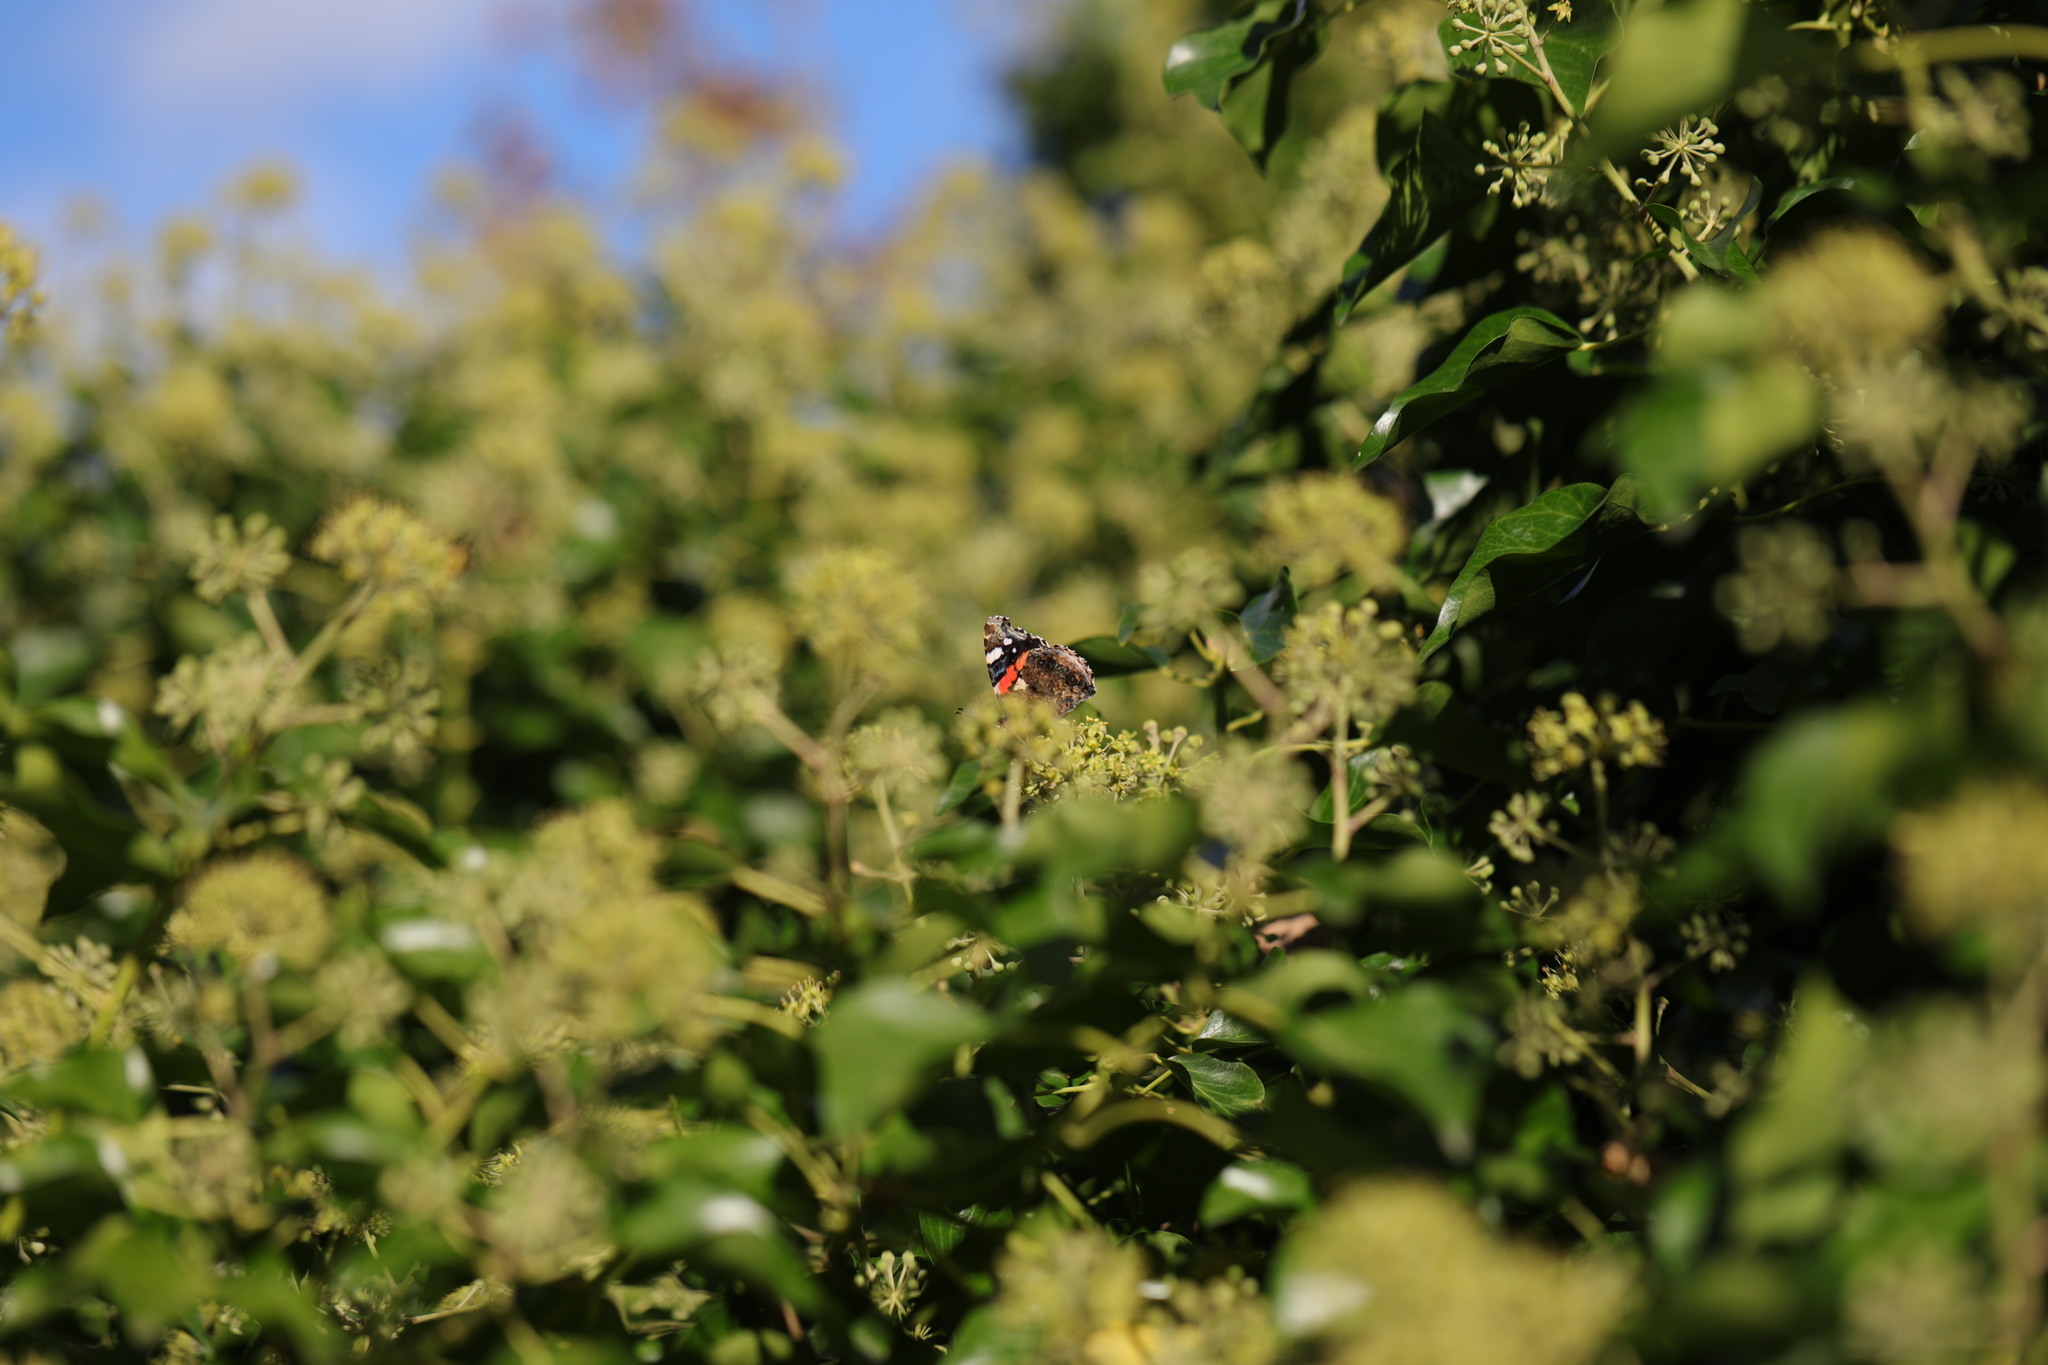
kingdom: Animalia
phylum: Arthropoda
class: Insecta
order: Lepidoptera
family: Nymphalidae
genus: Vanessa
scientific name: Vanessa atalanta
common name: Red admiral
